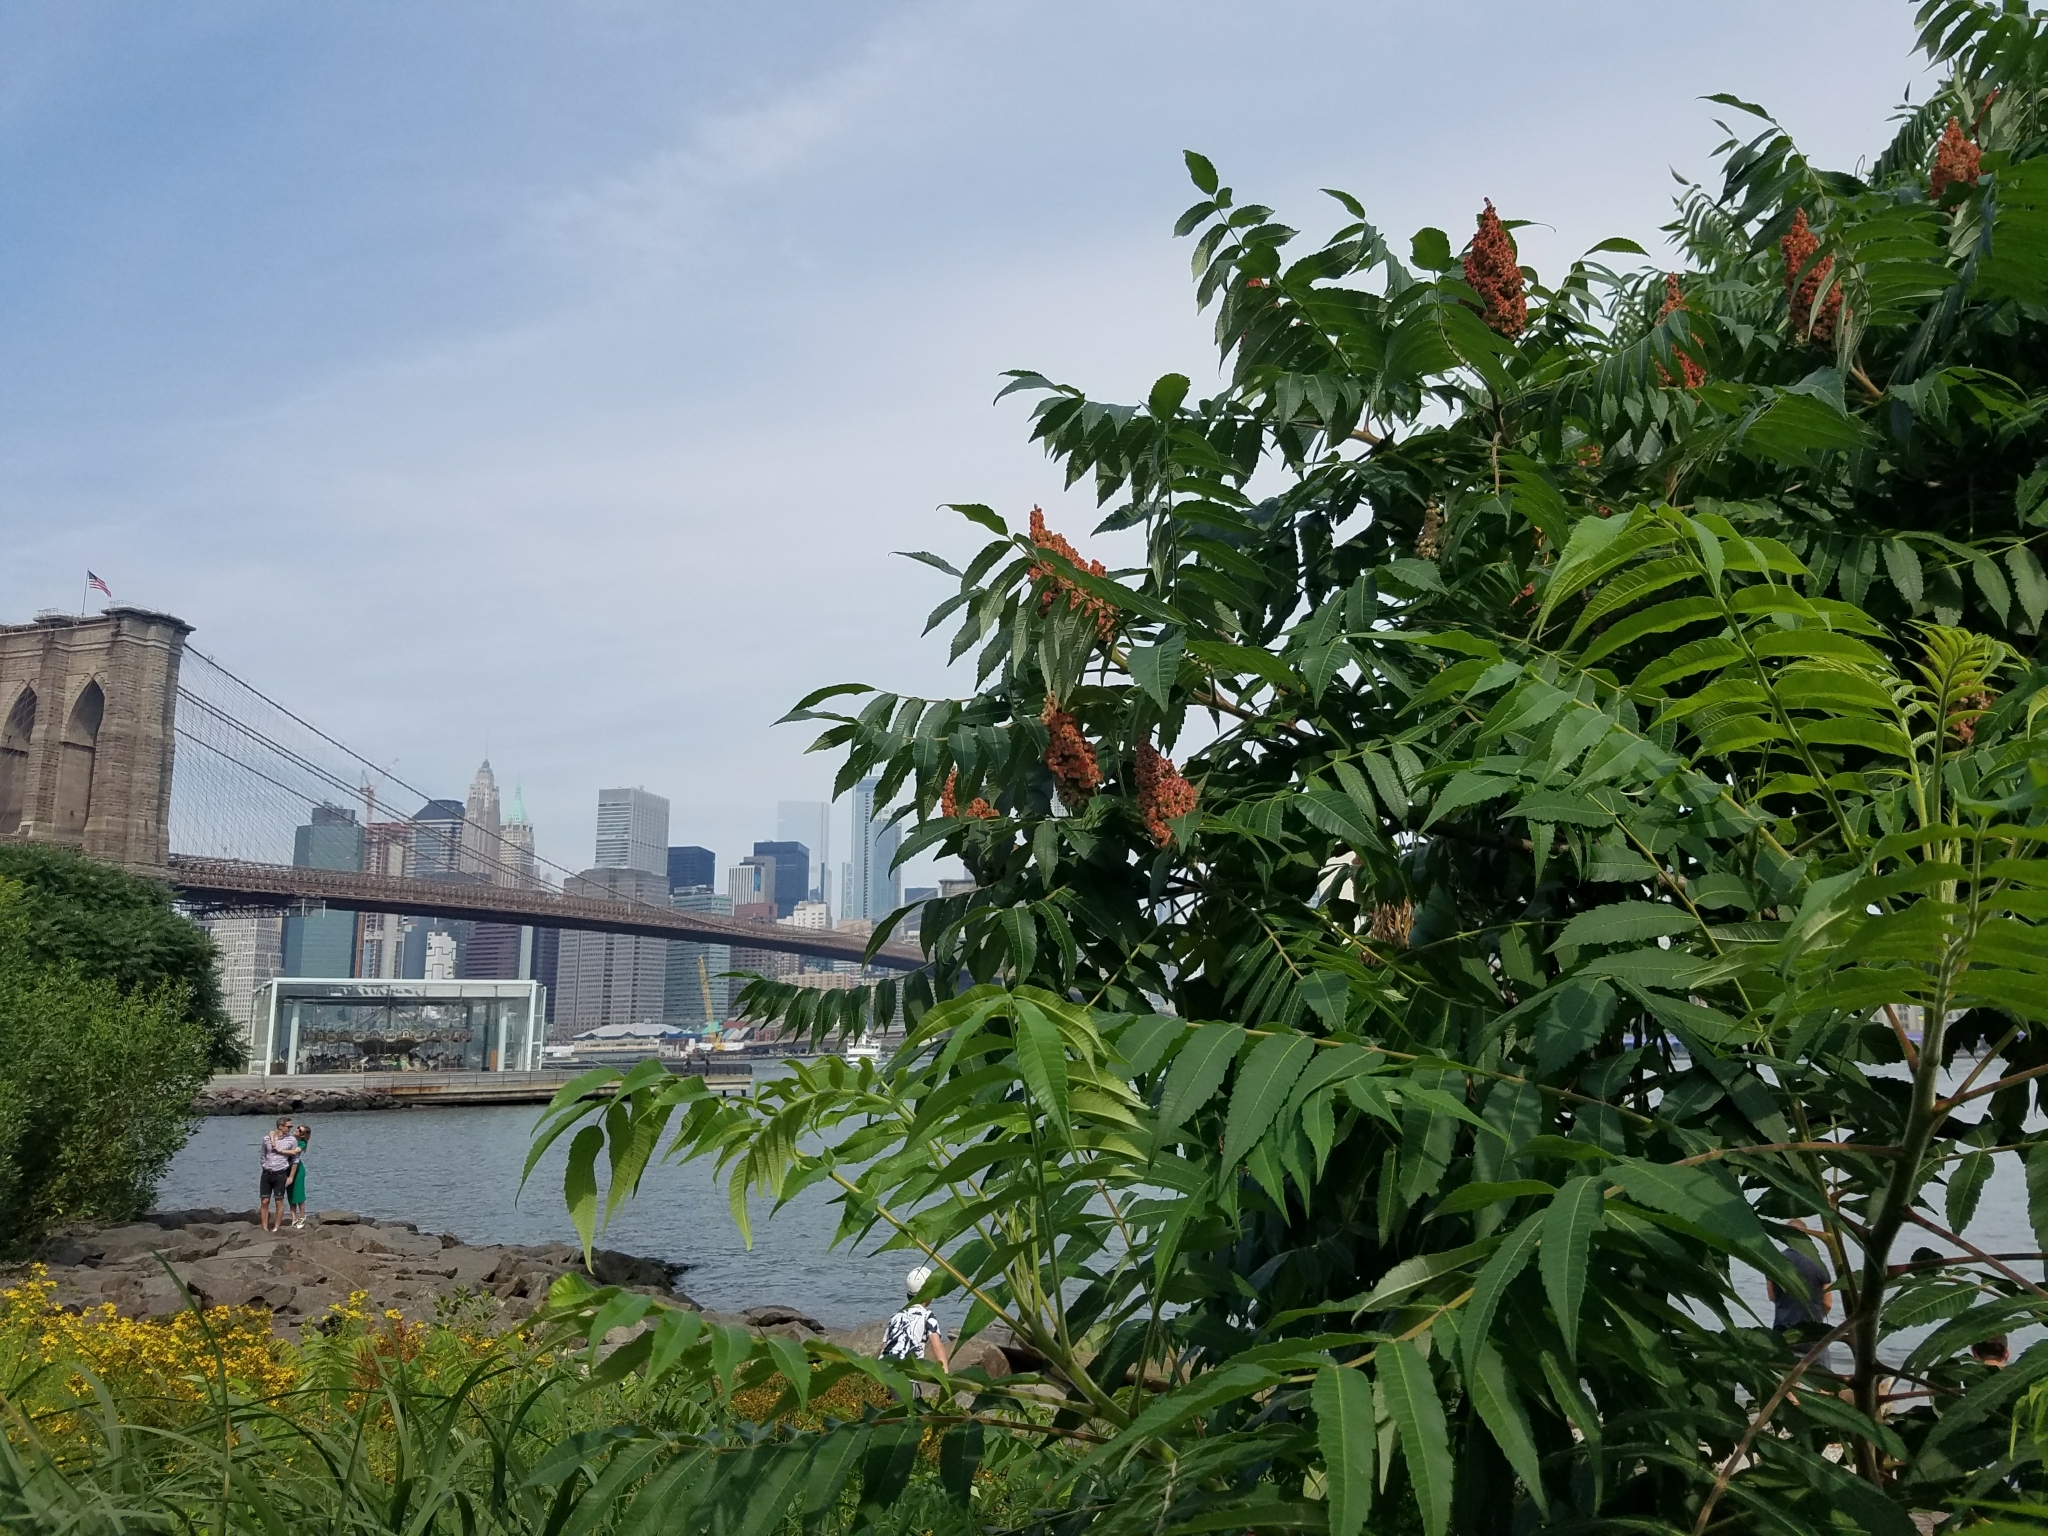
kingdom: Plantae
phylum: Tracheophyta
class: Magnoliopsida
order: Sapindales
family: Anacardiaceae
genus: Rhus
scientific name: Rhus typhina
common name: Staghorn sumac
